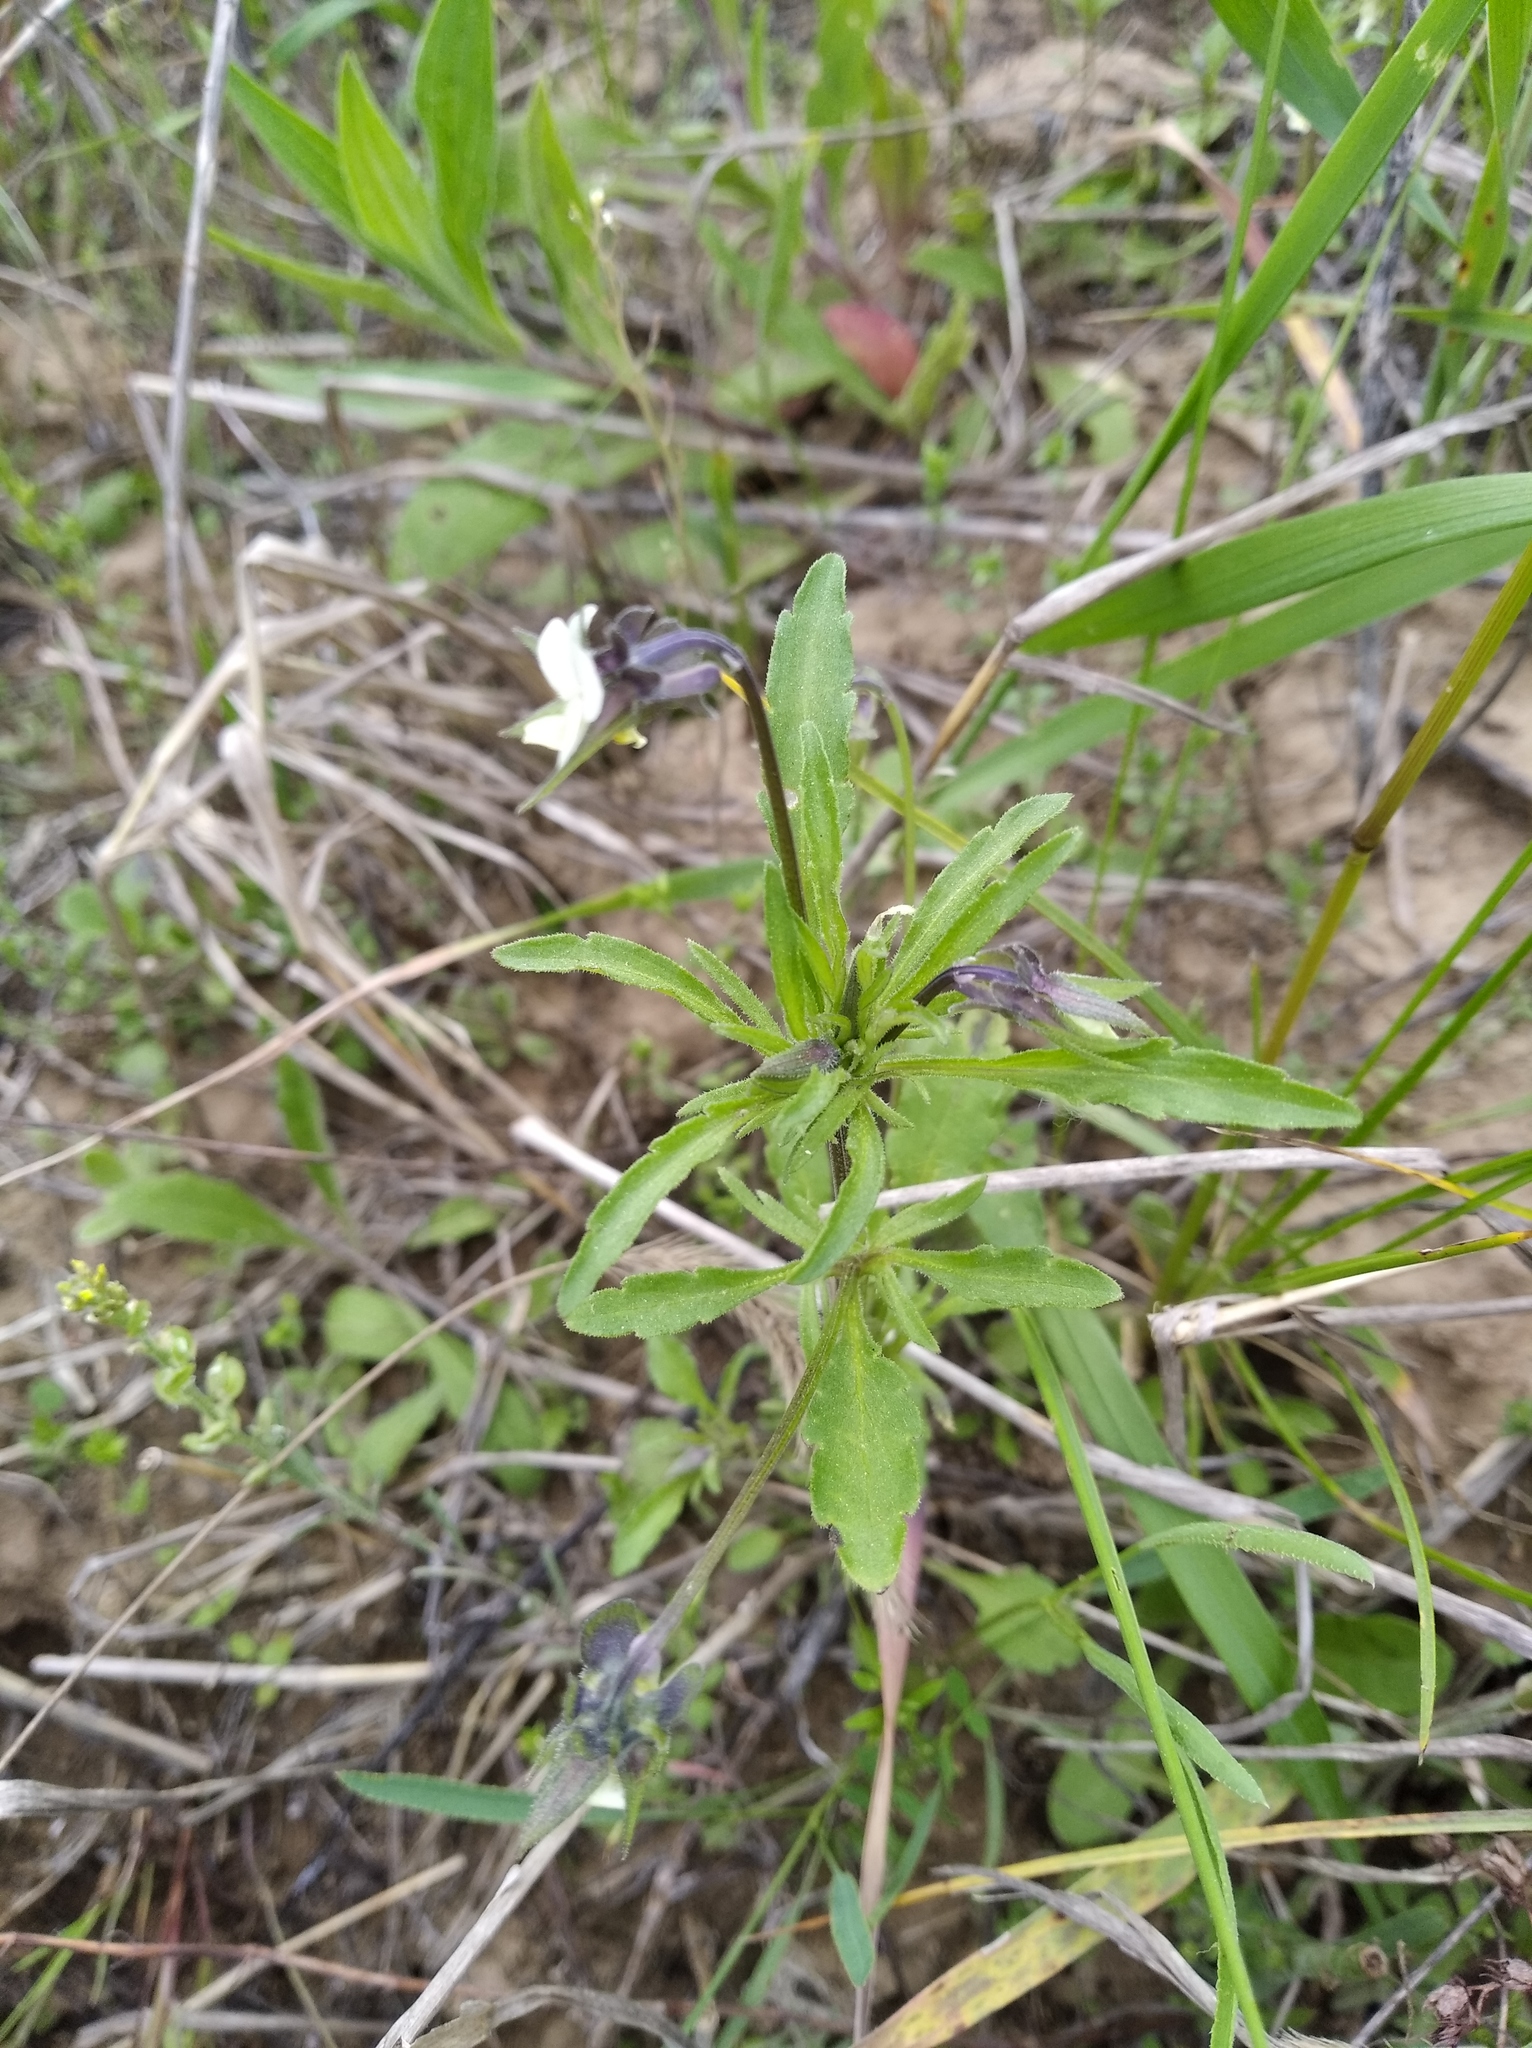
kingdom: Plantae
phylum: Tracheophyta
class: Magnoliopsida
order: Malpighiales
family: Violaceae
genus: Viola
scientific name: Viola arvensis
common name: Field pansy
